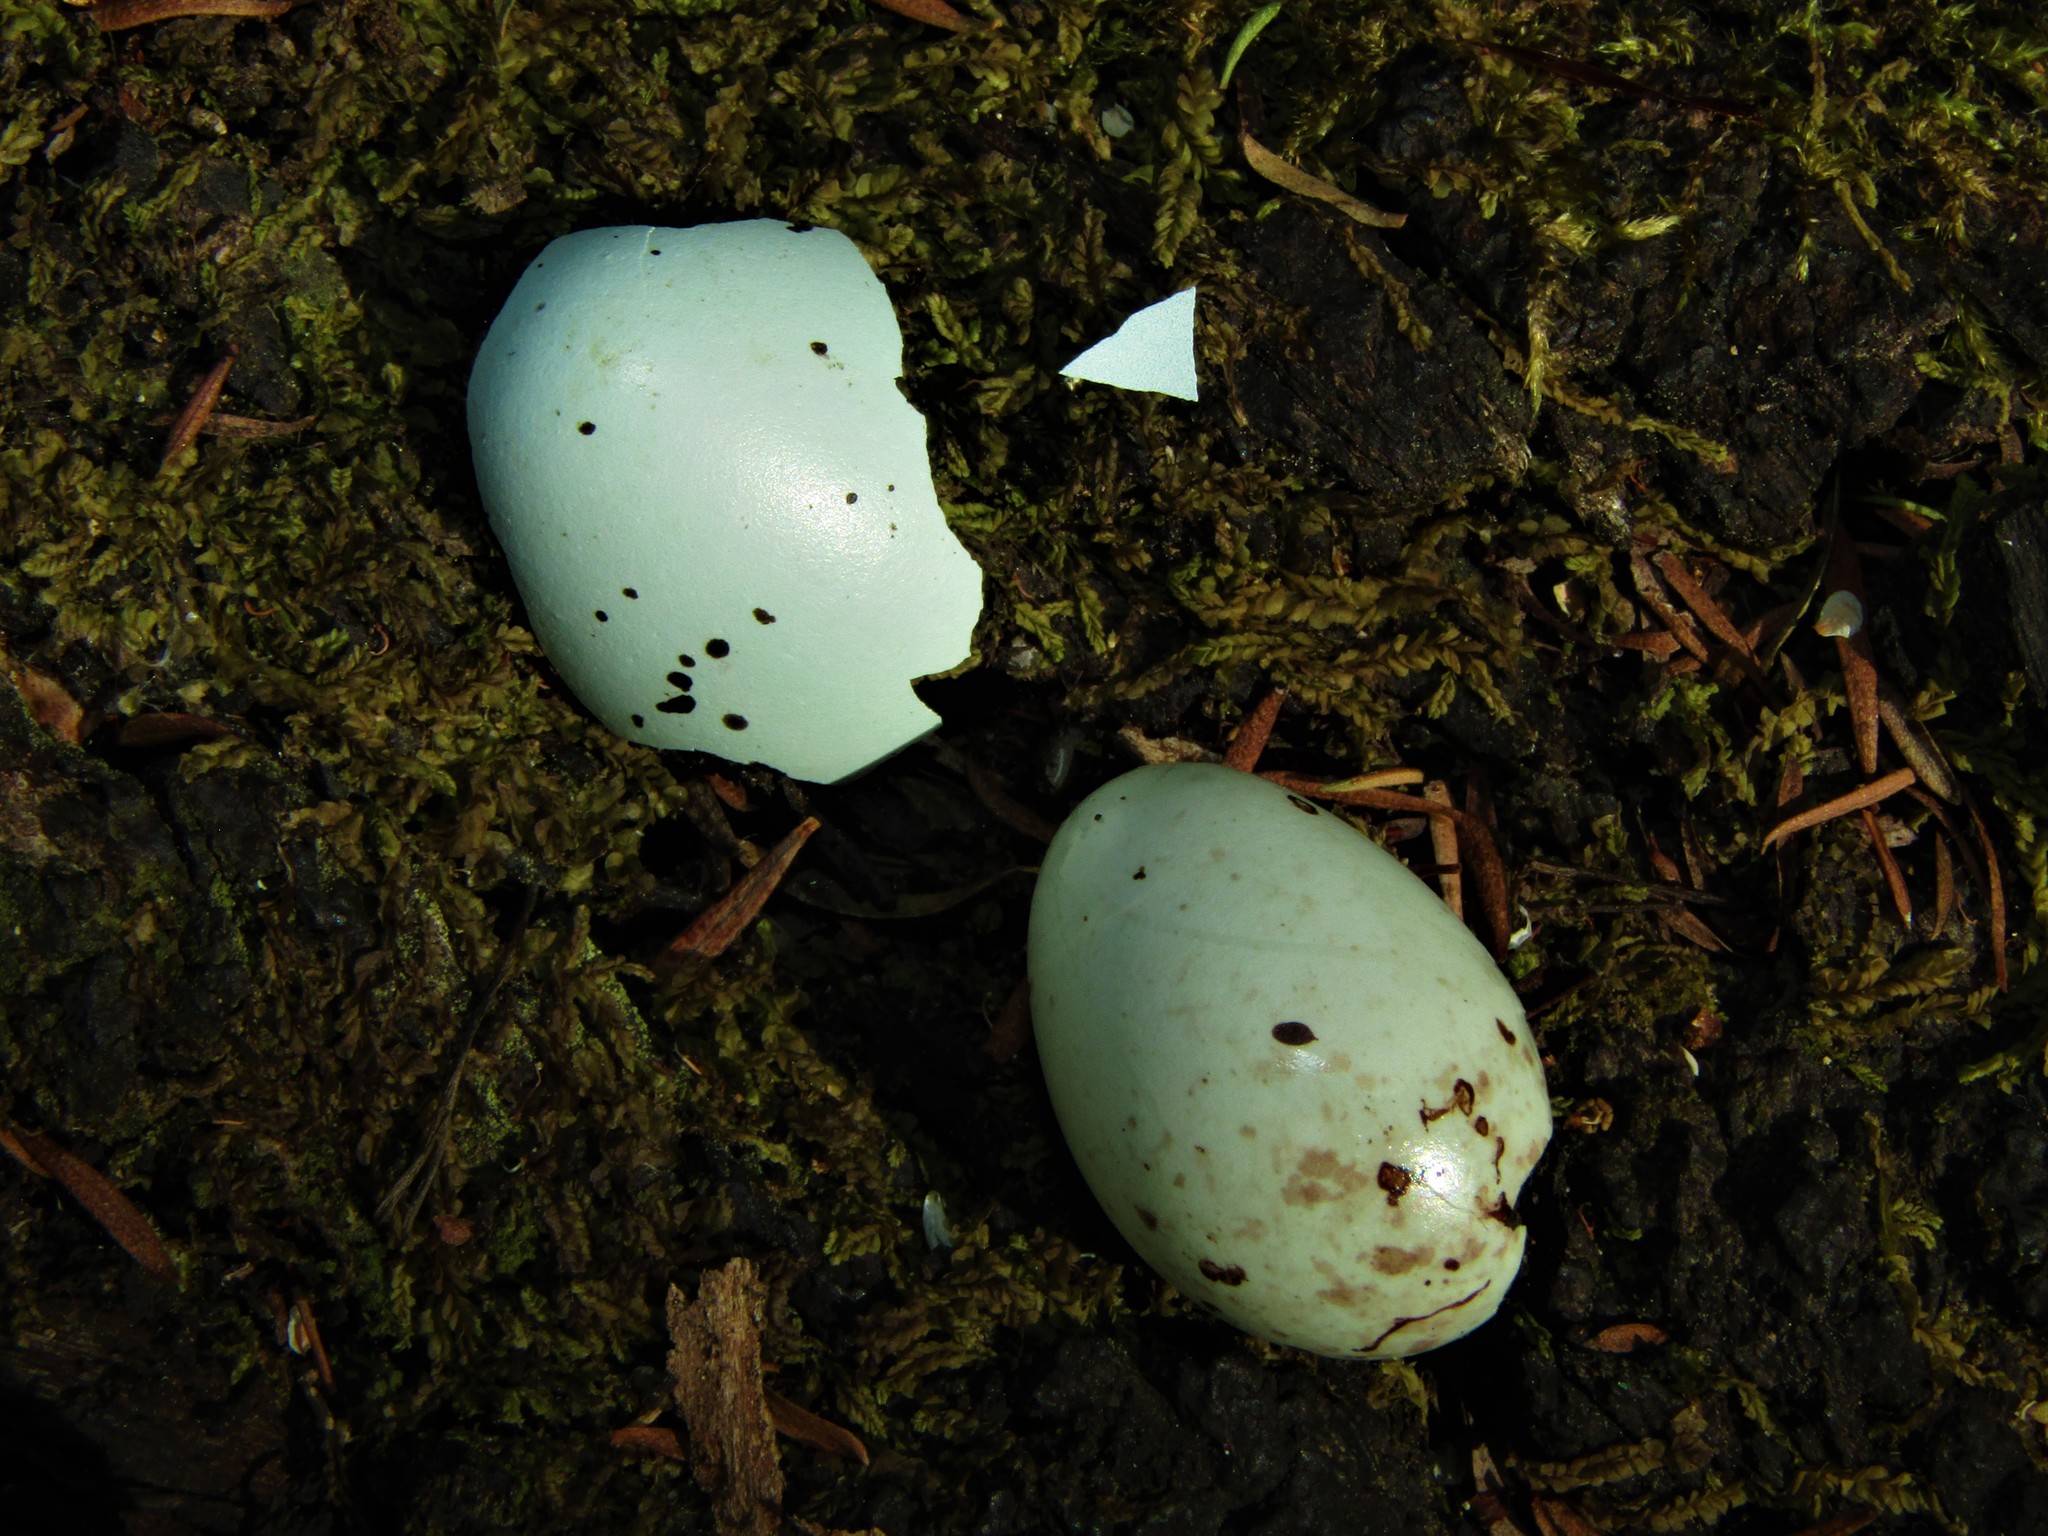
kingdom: Animalia
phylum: Chordata
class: Aves
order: Passeriformes
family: Turdidae
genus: Turdus
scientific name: Turdus philomelos
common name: Song thrush
